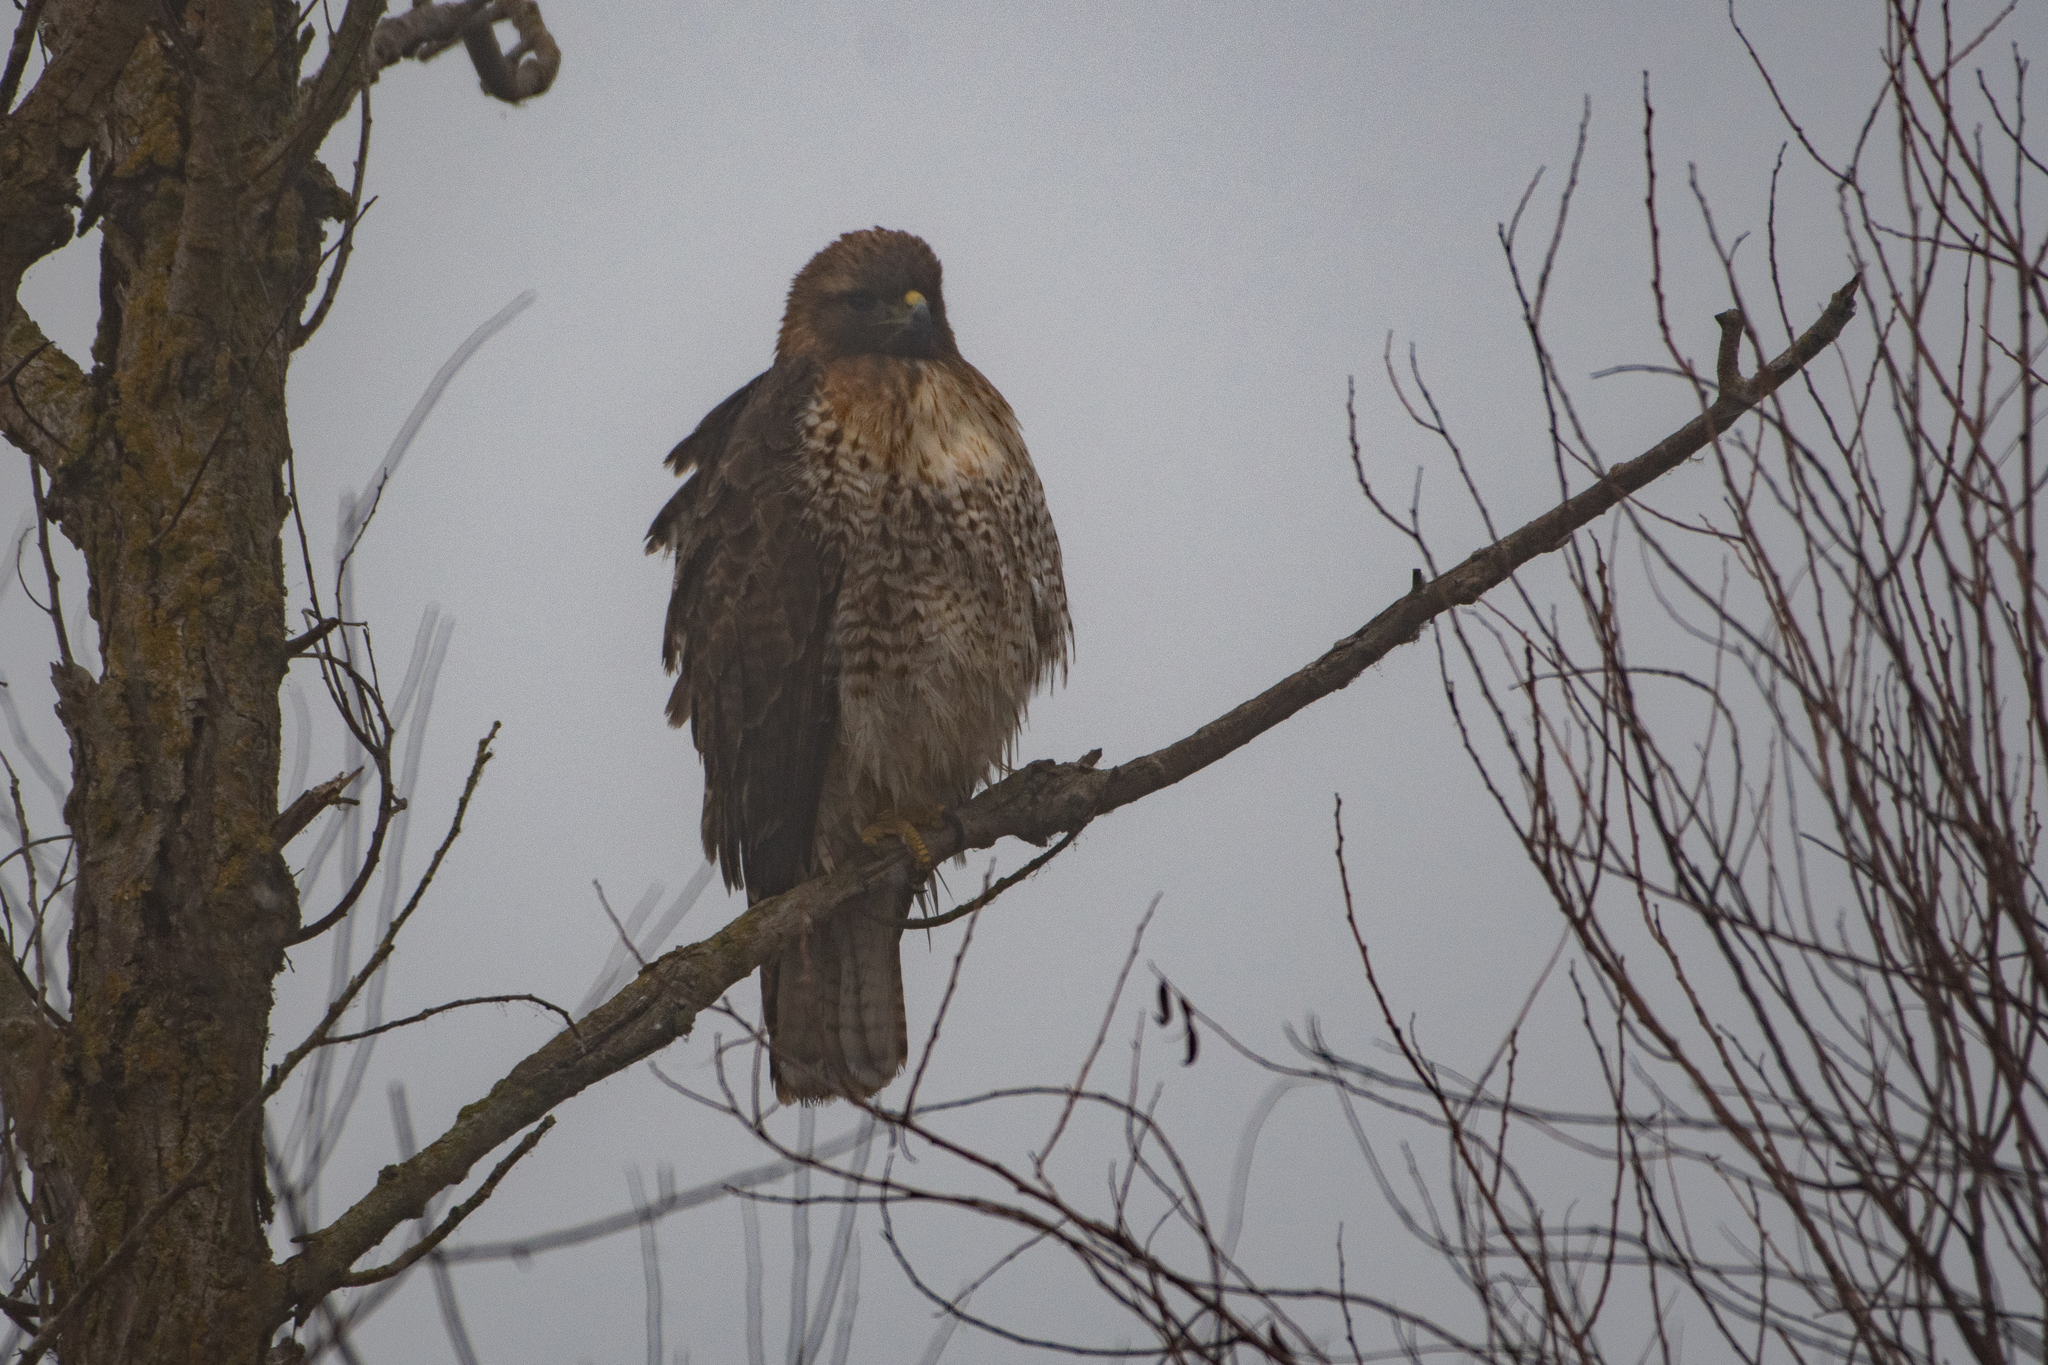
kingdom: Animalia
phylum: Chordata
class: Aves
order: Accipitriformes
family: Accipitridae
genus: Buteo
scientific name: Buteo jamaicensis
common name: Red-tailed hawk
